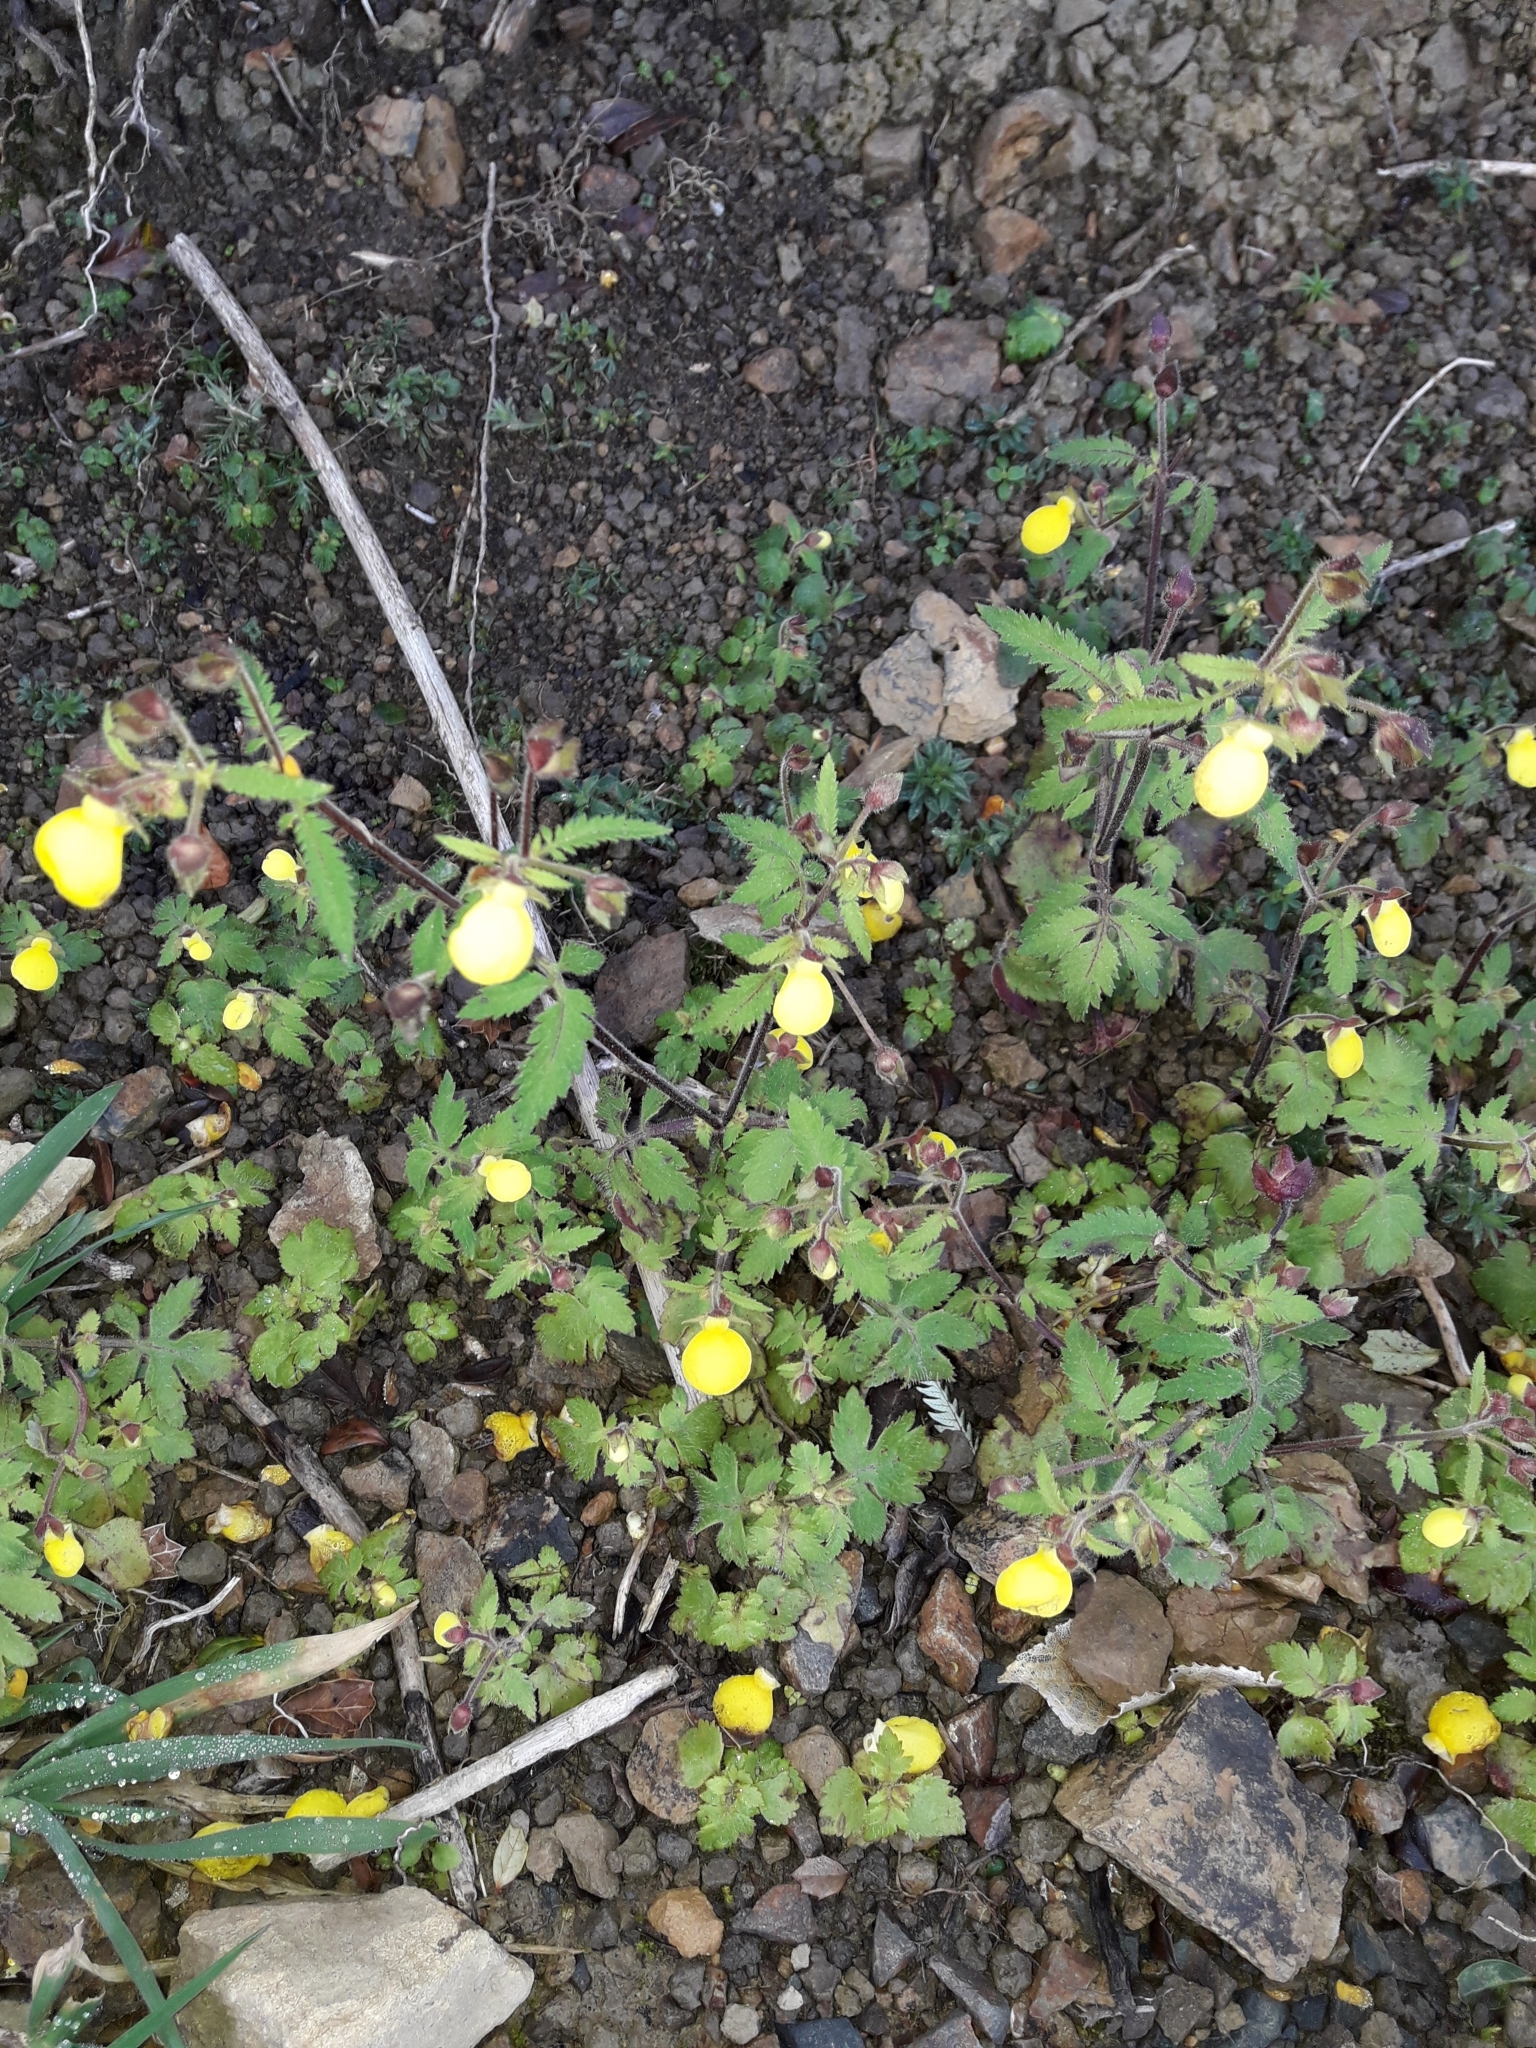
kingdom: Plantae
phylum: Tracheophyta
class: Magnoliopsida
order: Lamiales
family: Calceolariaceae
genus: Calceolaria
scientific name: Calceolaria tripartita
